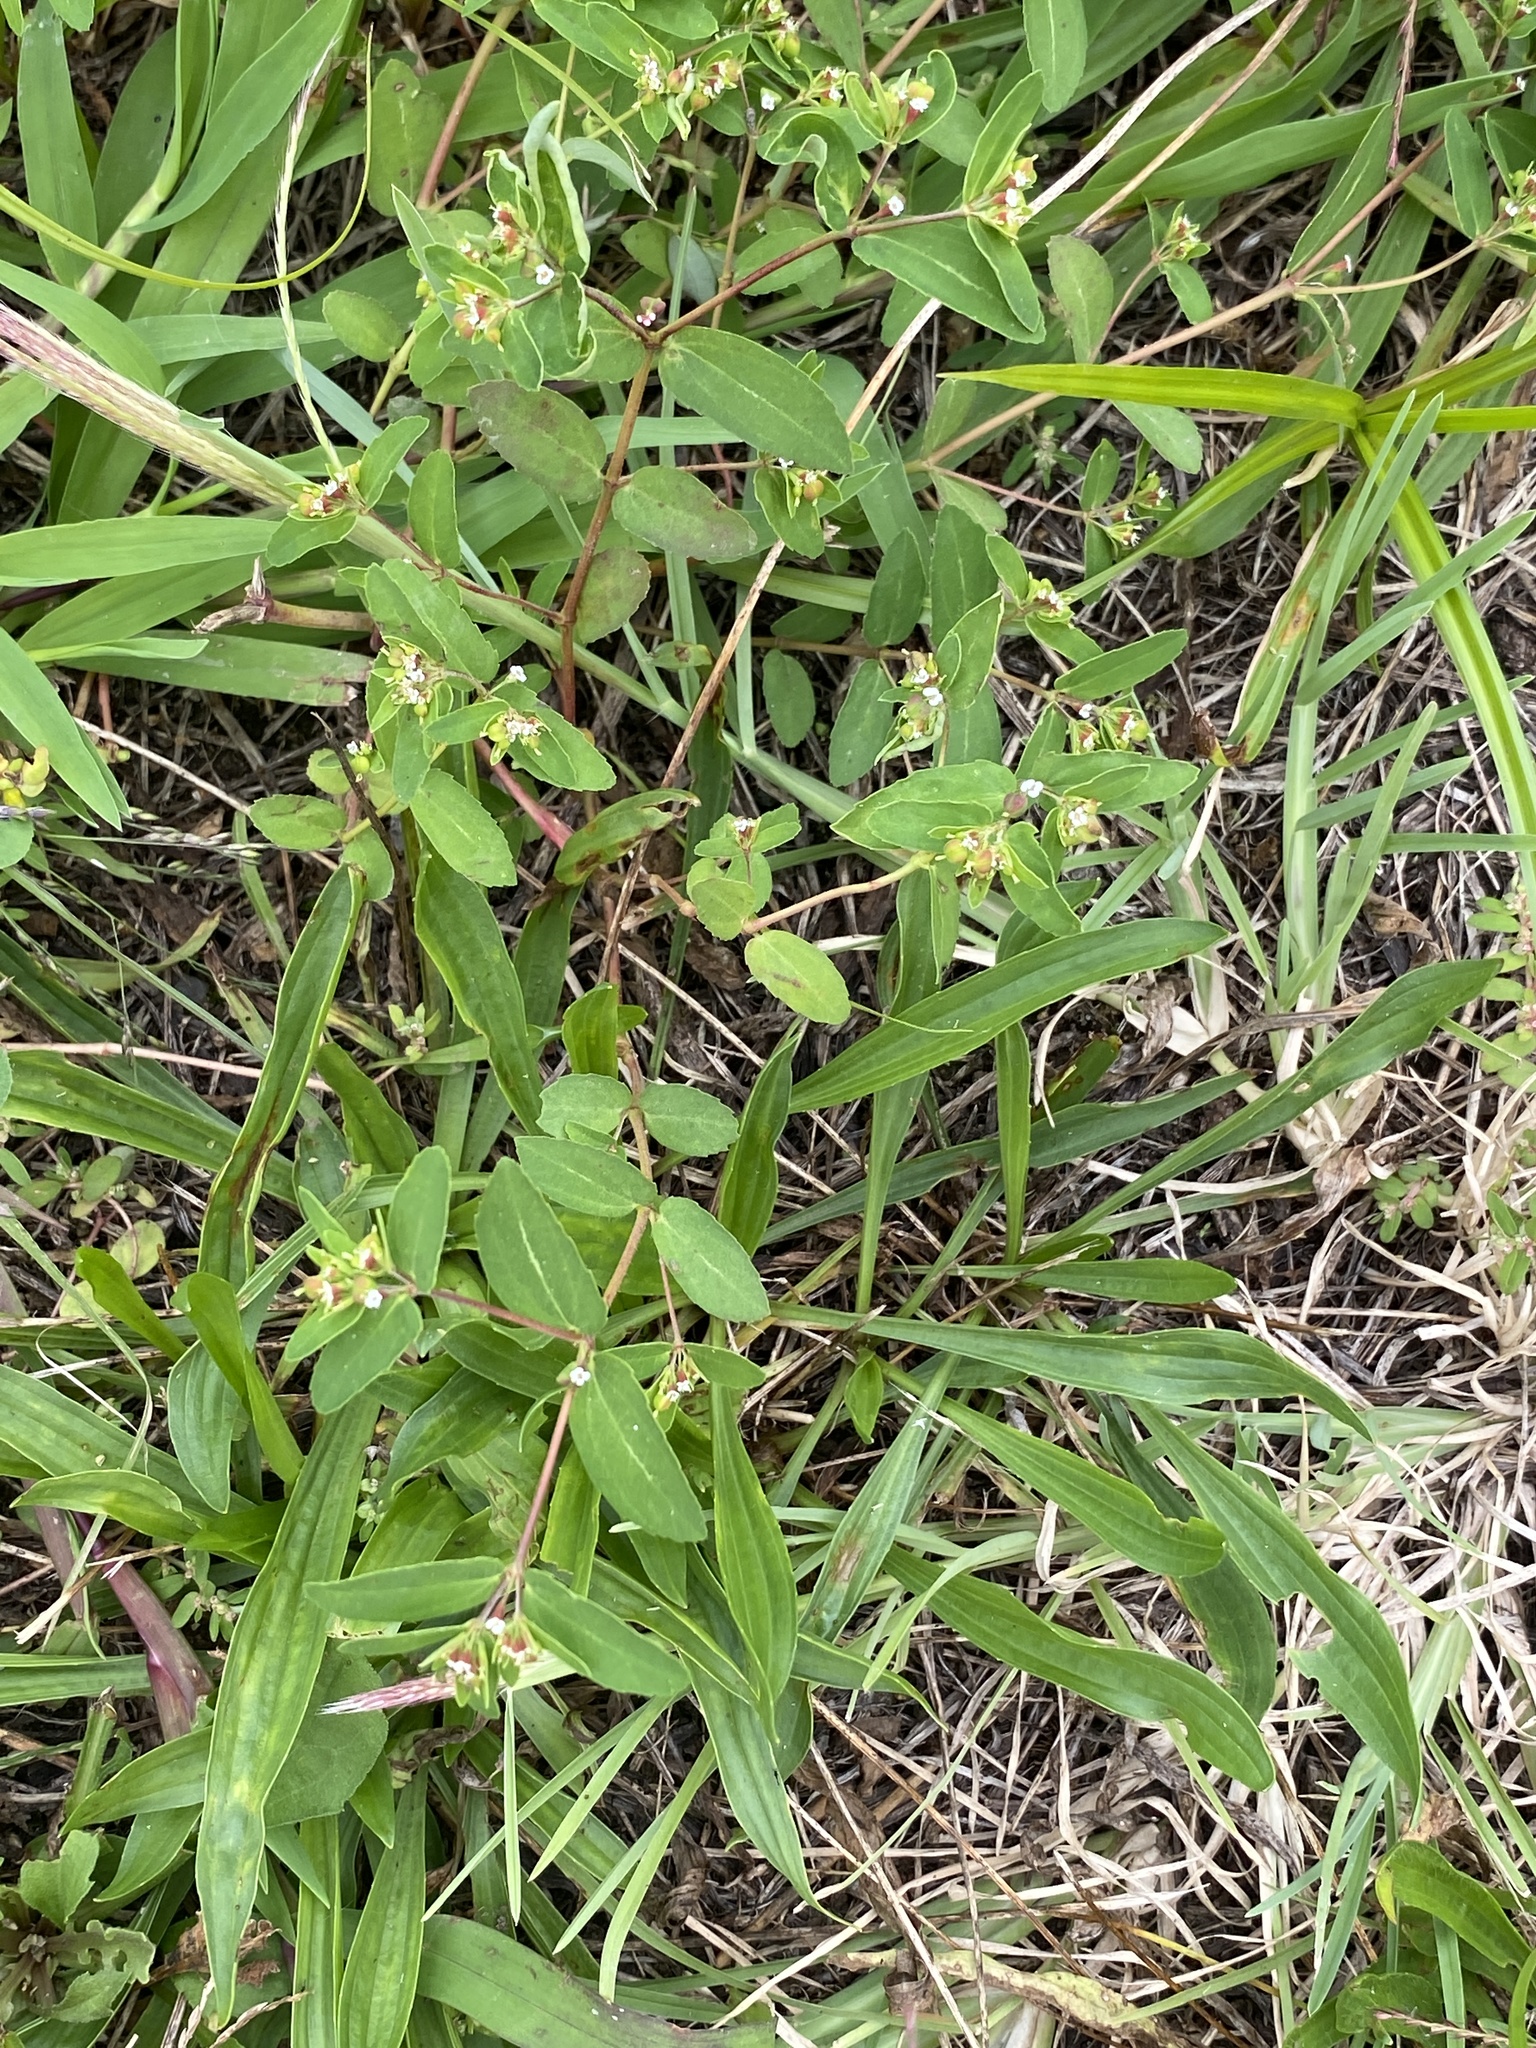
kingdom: Plantae
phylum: Tracheophyta
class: Magnoliopsida
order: Malpighiales
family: Euphorbiaceae
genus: Euphorbia
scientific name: Euphorbia nutans
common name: Eyebane
